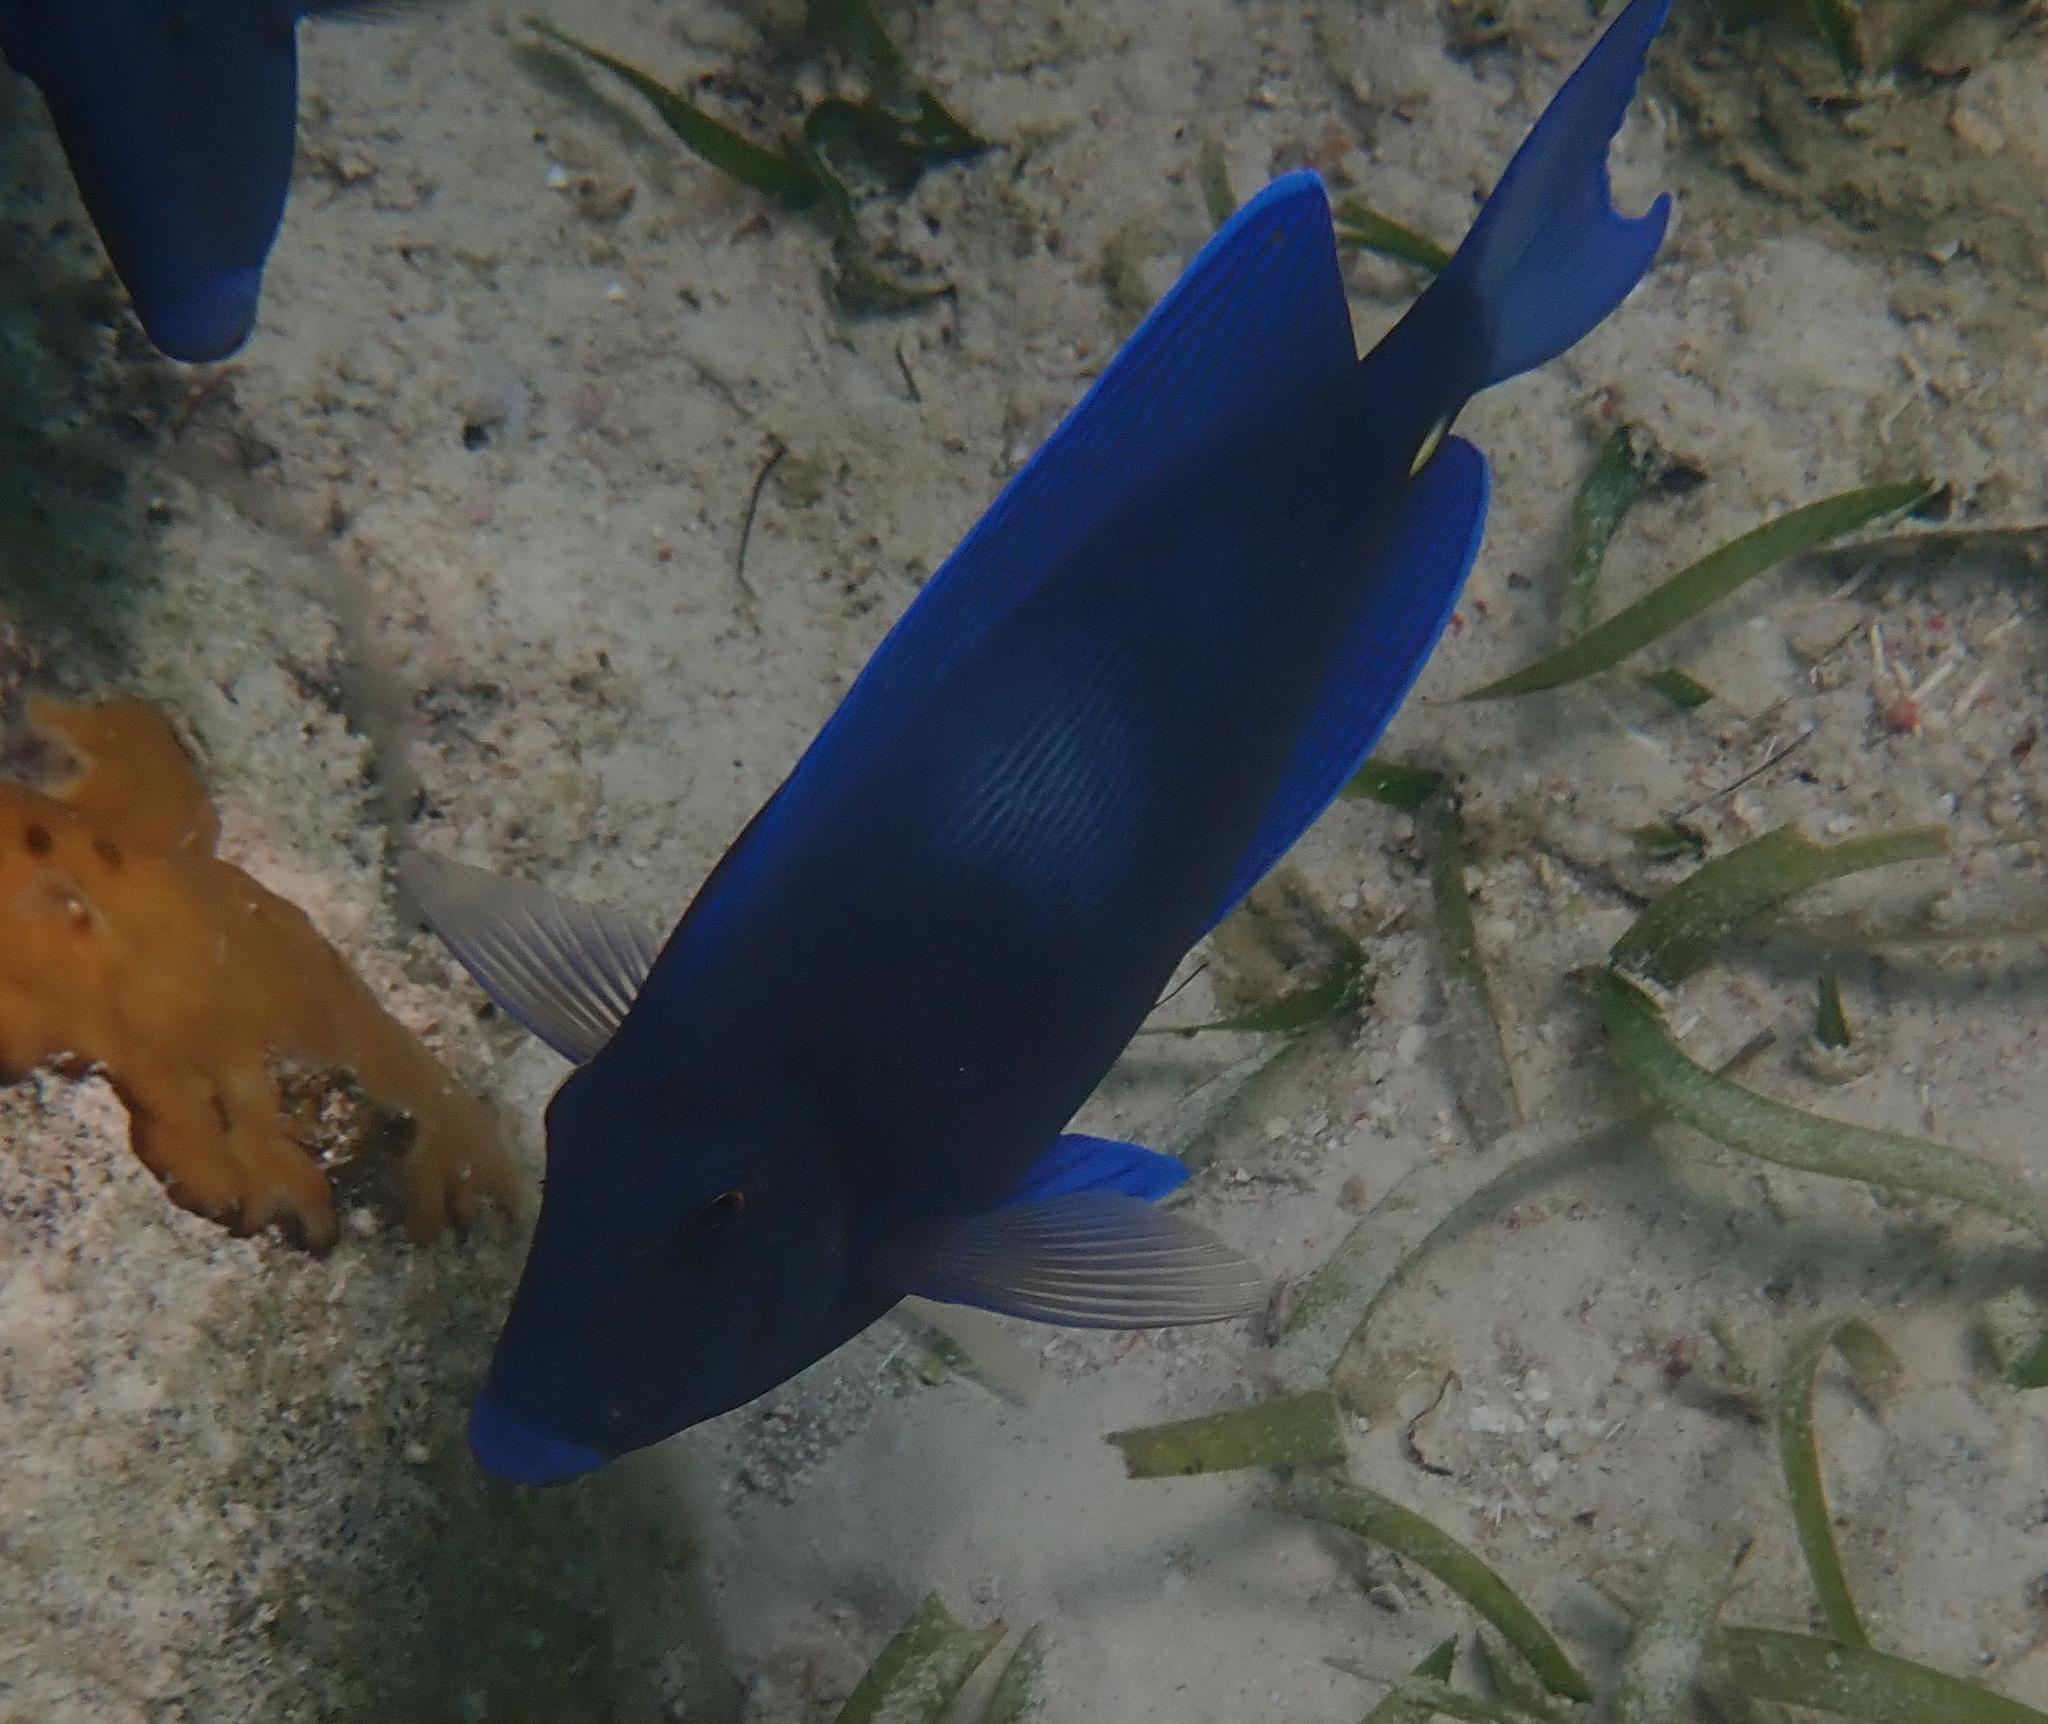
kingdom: Animalia
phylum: Chordata
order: Perciformes
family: Acanthuridae
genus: Acanthurus
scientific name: Acanthurus coeruleus
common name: Blue tang
